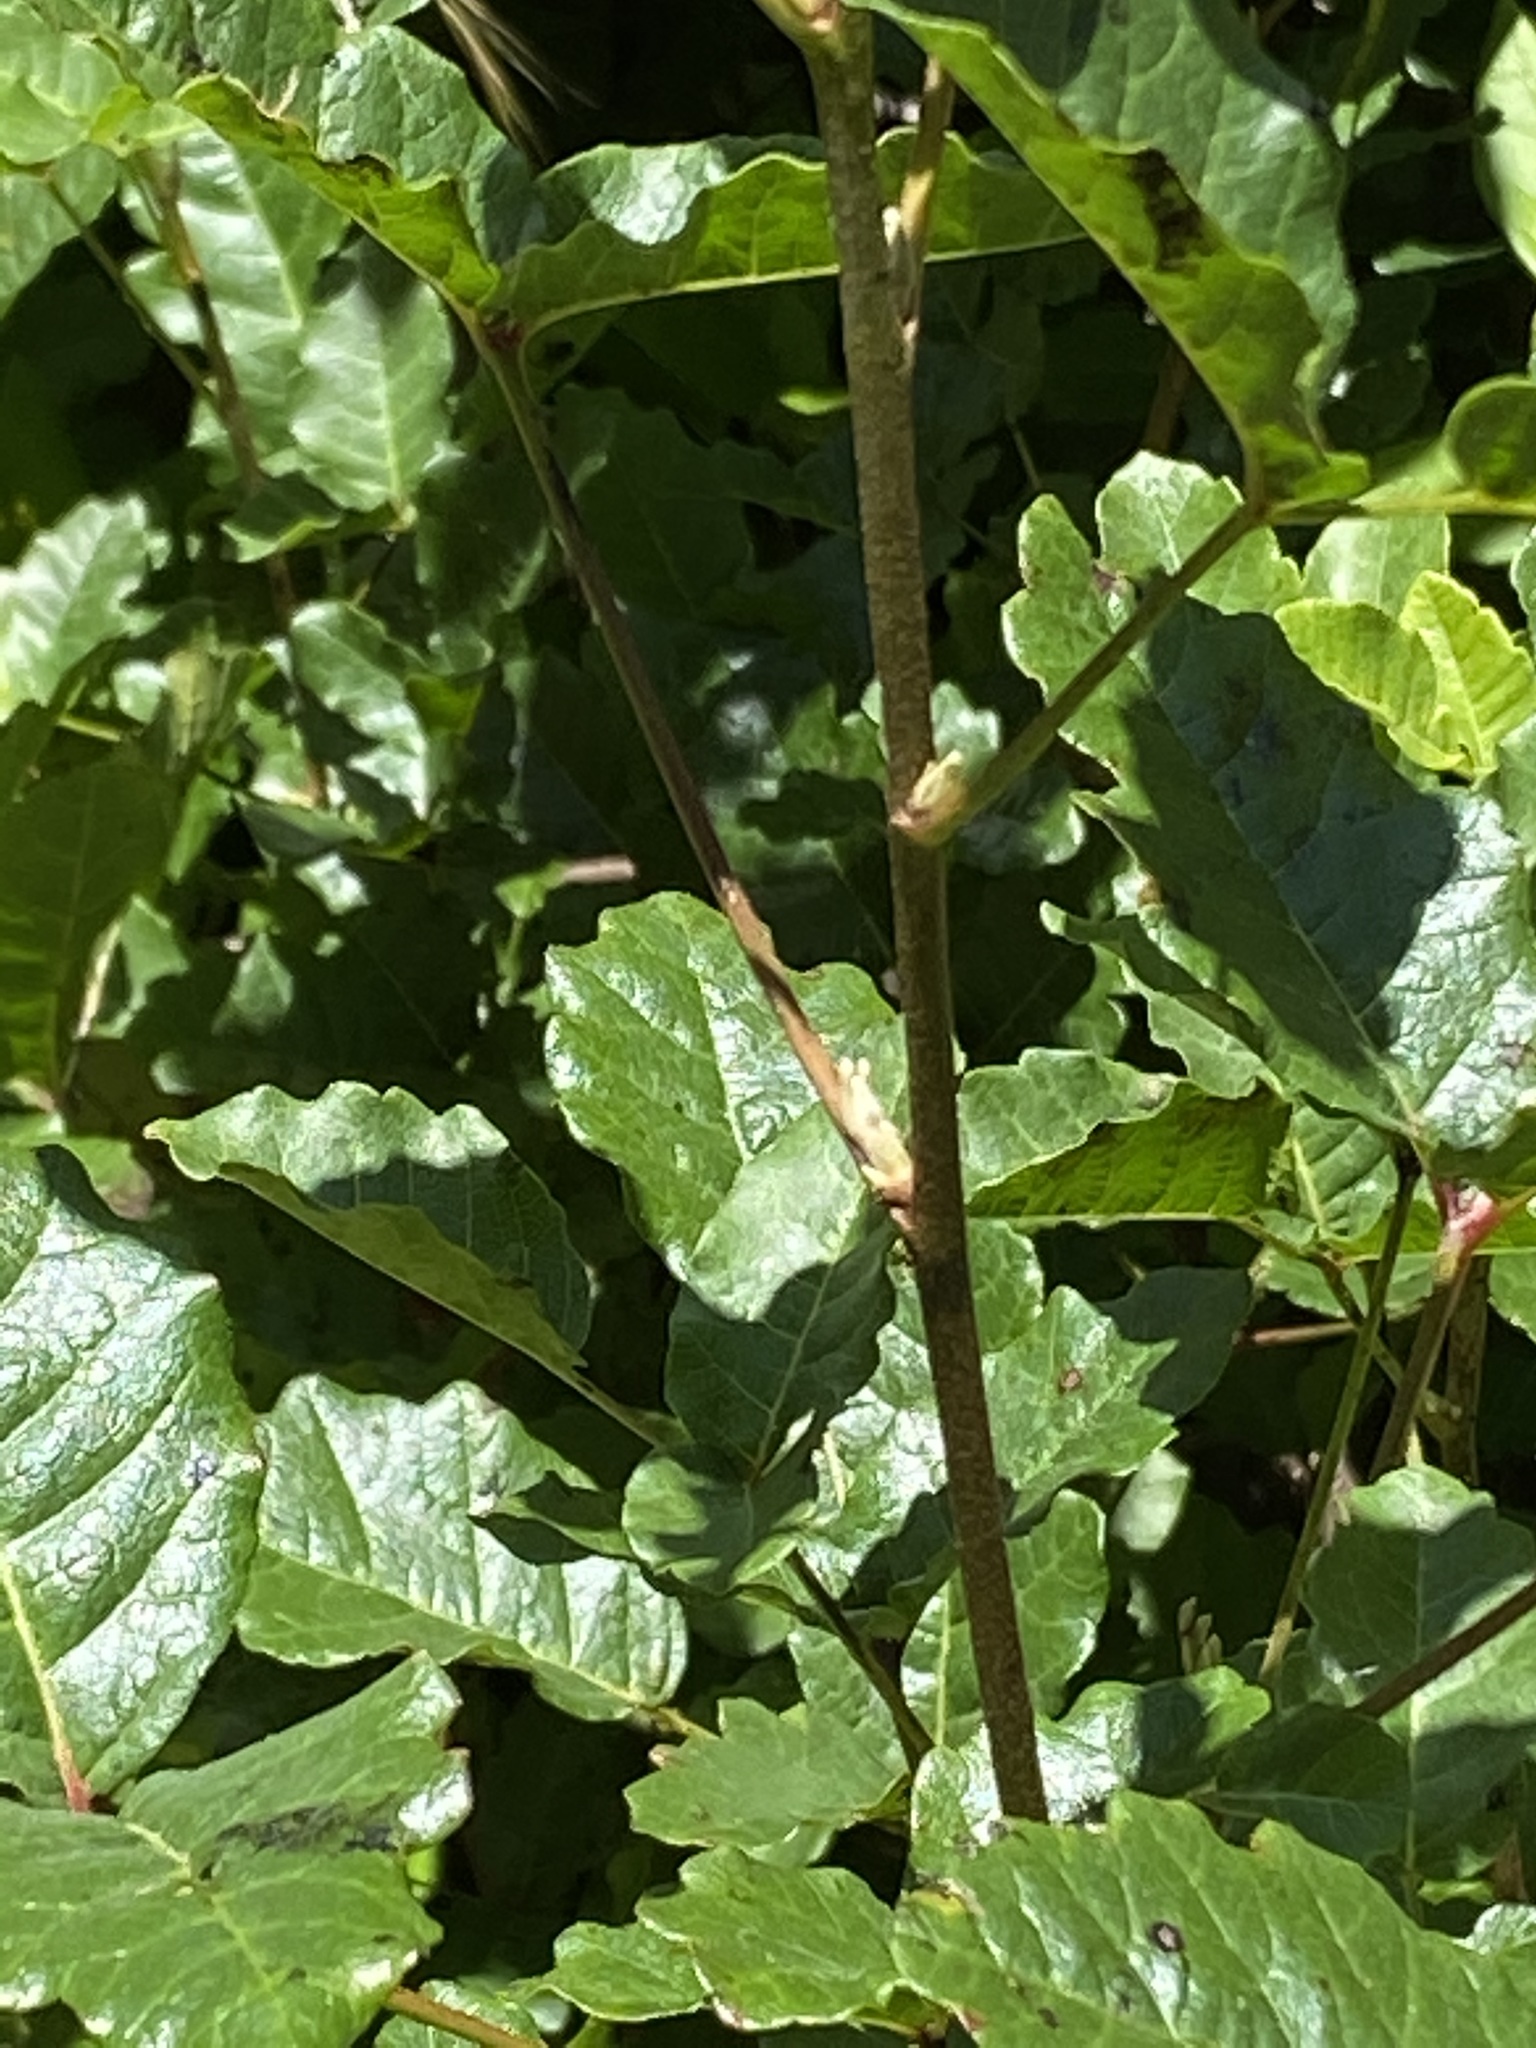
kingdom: Plantae
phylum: Tracheophyta
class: Magnoliopsida
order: Sapindales
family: Anacardiaceae
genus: Toxicodendron
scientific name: Toxicodendron diversilobum
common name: Pacific poison-oak
